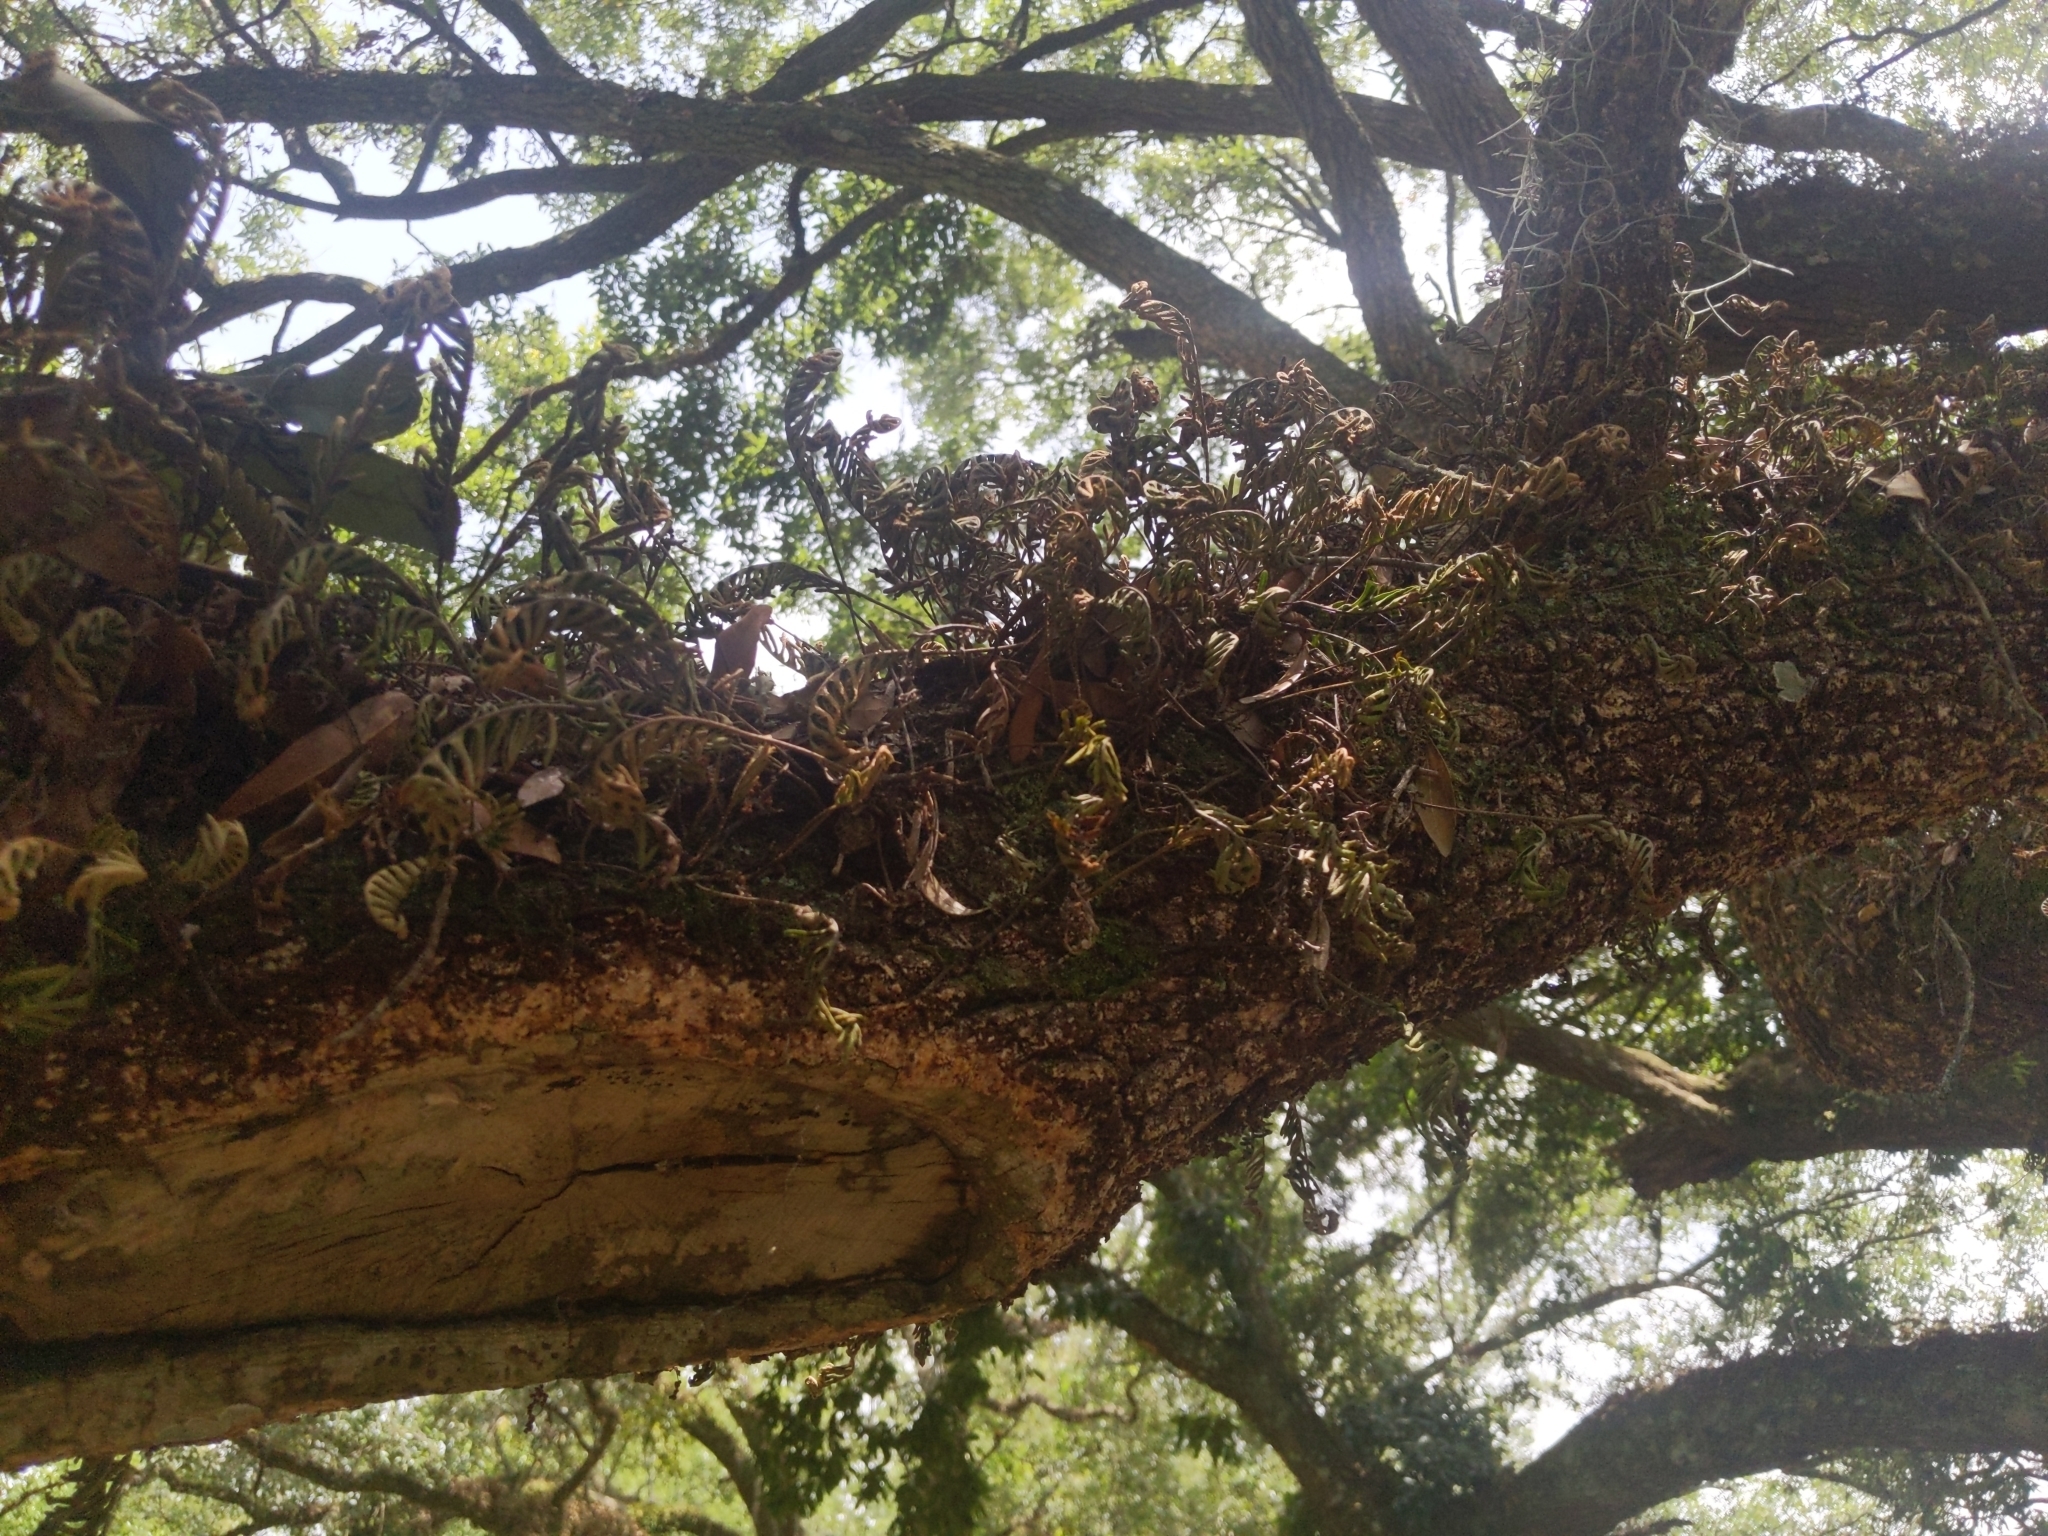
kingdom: Plantae
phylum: Tracheophyta
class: Polypodiopsida
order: Polypodiales
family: Polypodiaceae
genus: Pleopeltis
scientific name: Pleopeltis michauxiana
